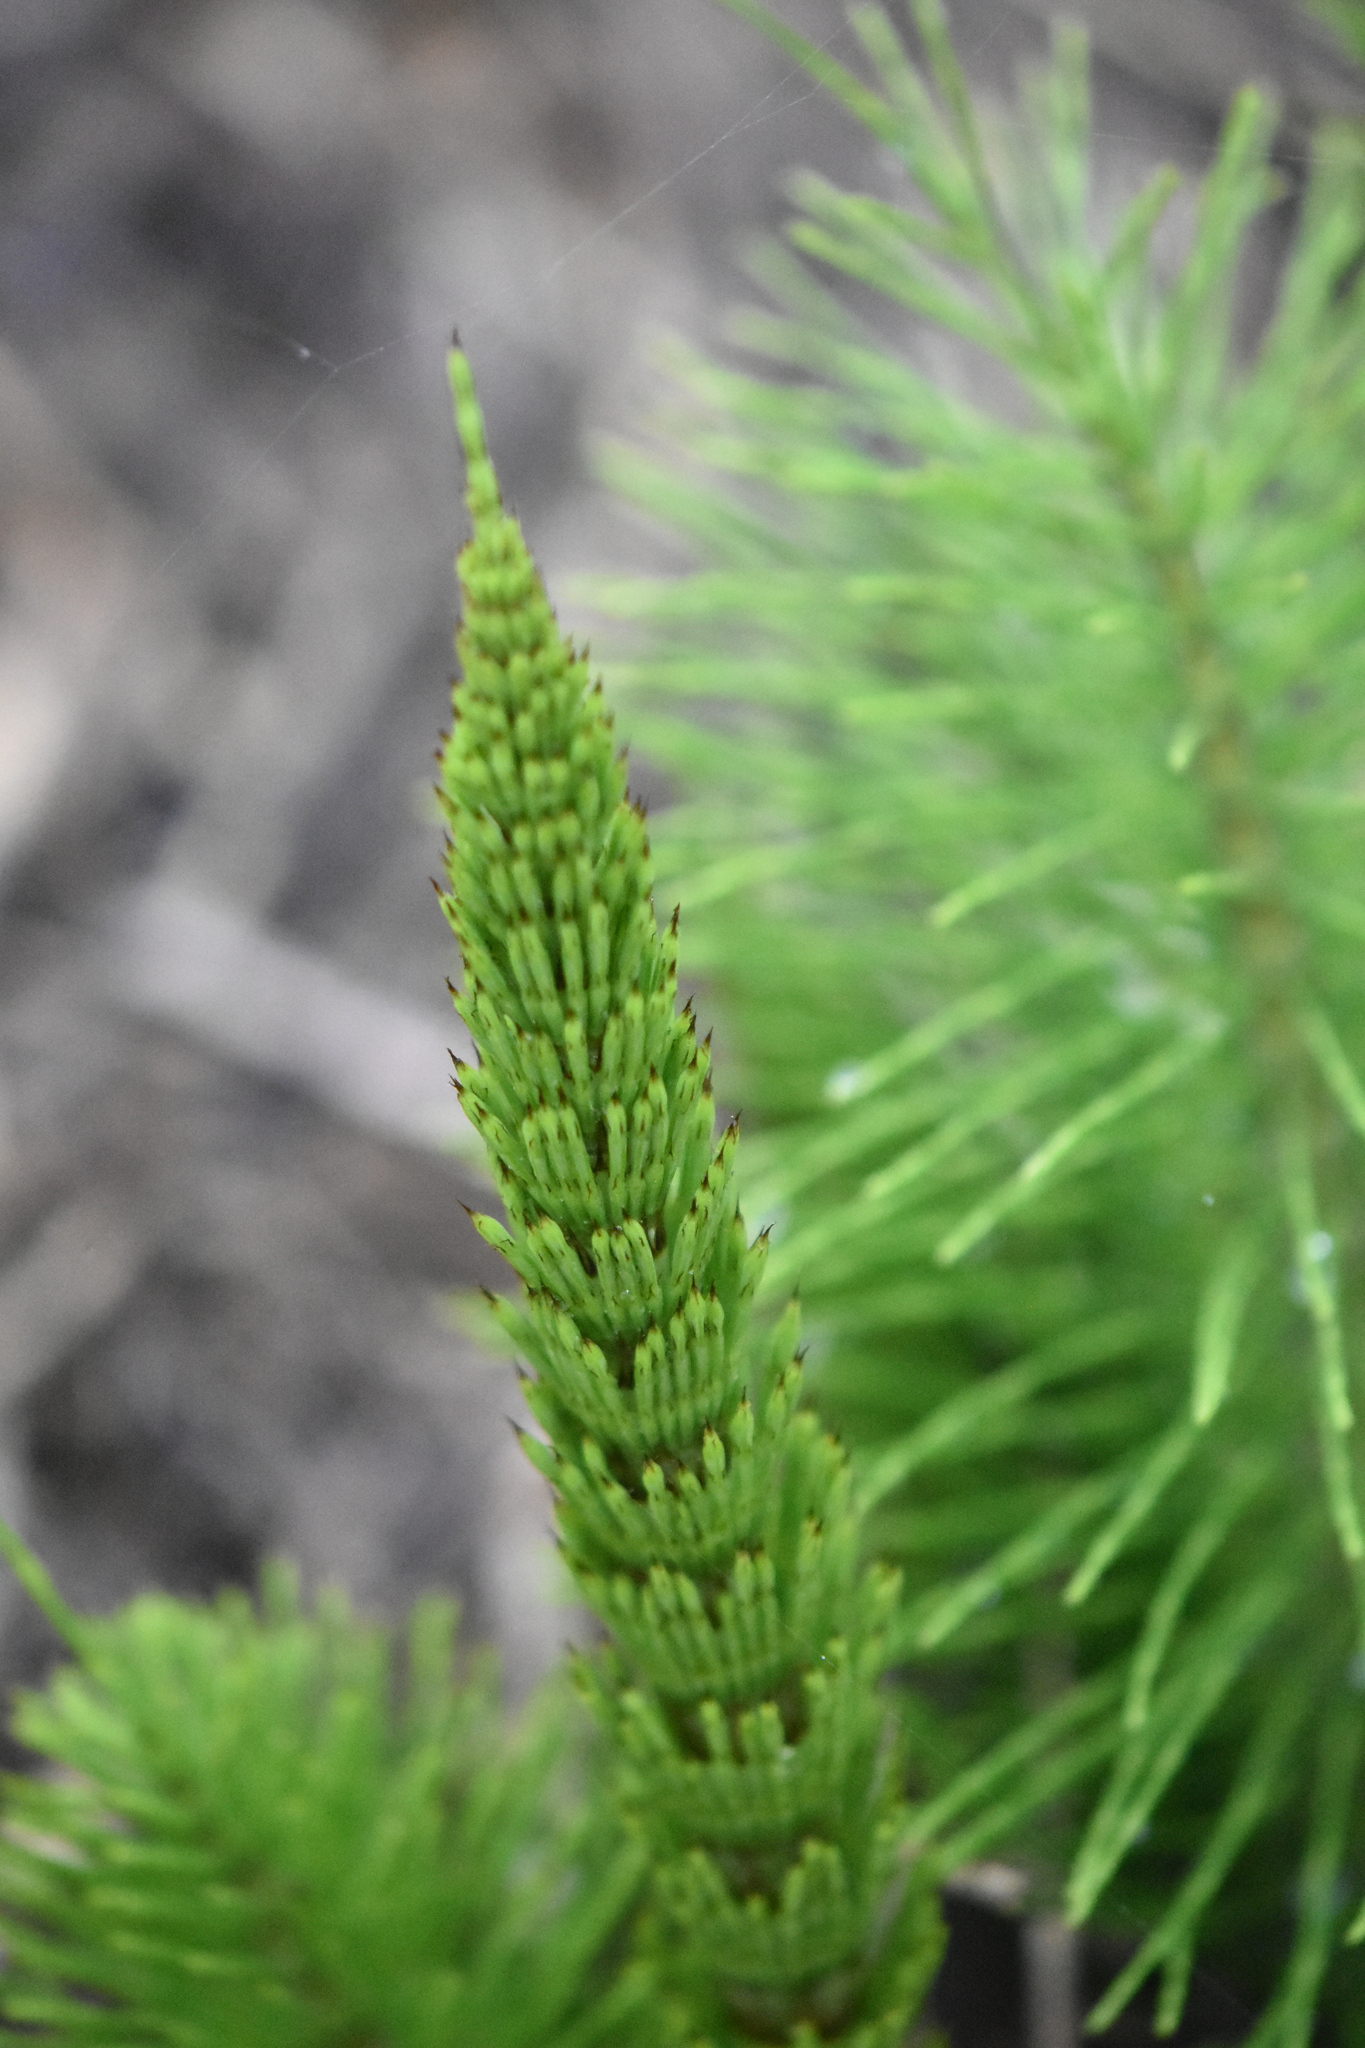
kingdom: Plantae
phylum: Tracheophyta
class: Polypodiopsida
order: Equisetales
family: Equisetaceae
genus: Equisetum
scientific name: Equisetum telmateia
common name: Great horsetail
